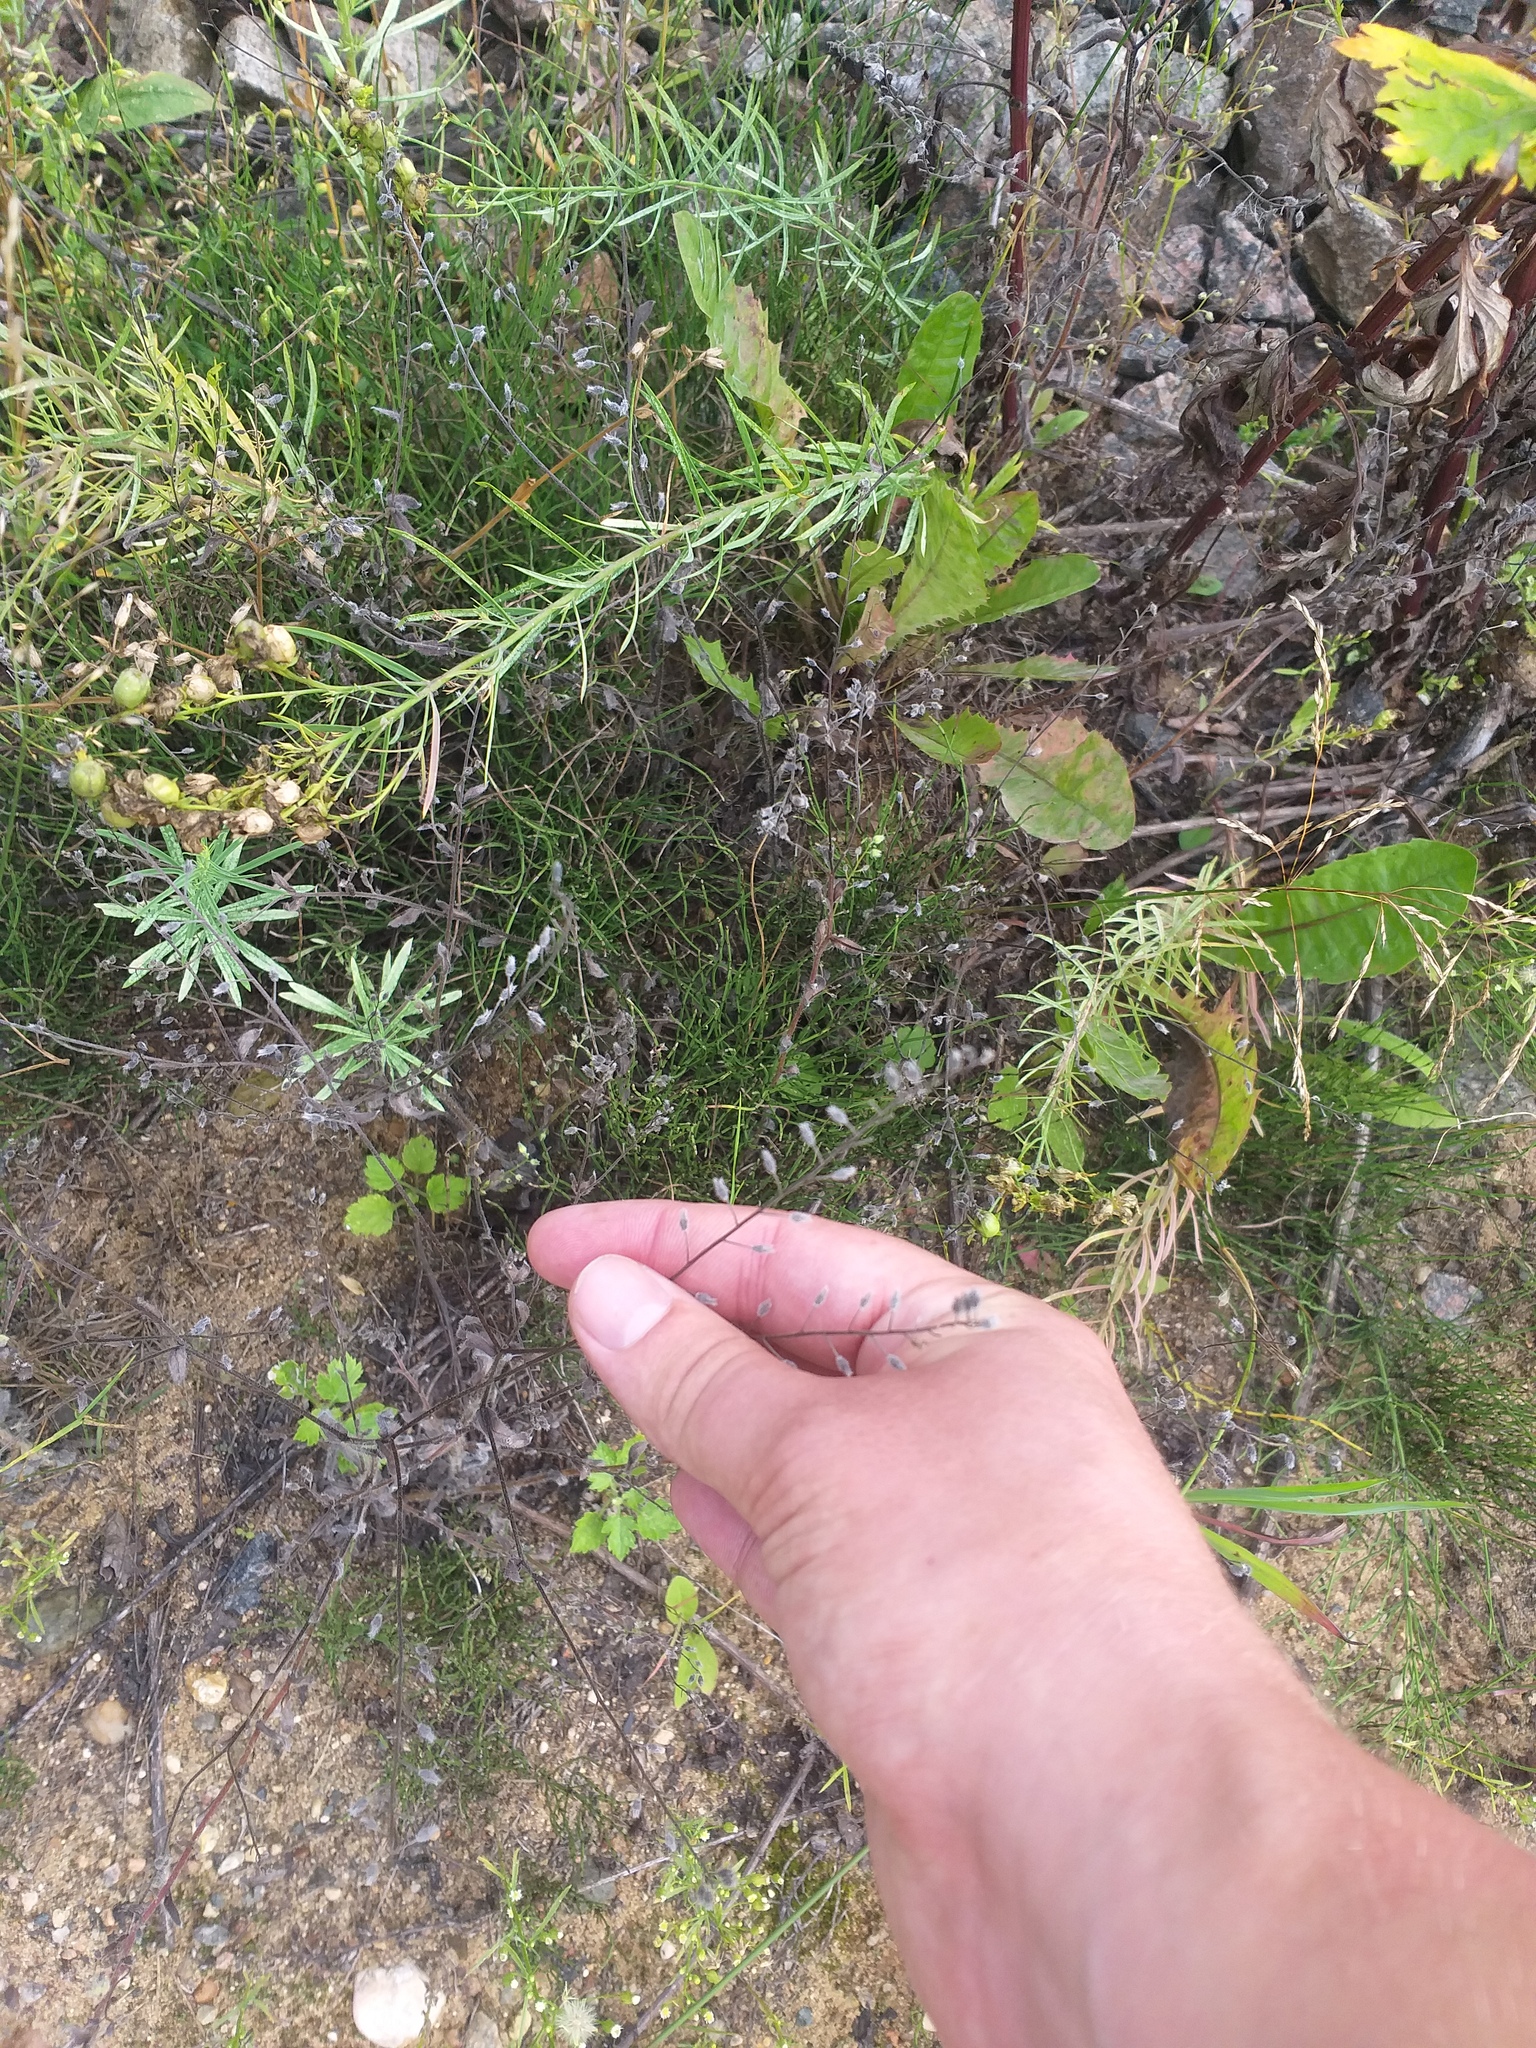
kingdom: Plantae
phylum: Tracheophyta
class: Magnoliopsida
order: Boraginales
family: Boraginaceae
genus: Myosotis
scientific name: Myosotis arvensis
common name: Field forget-me-not
